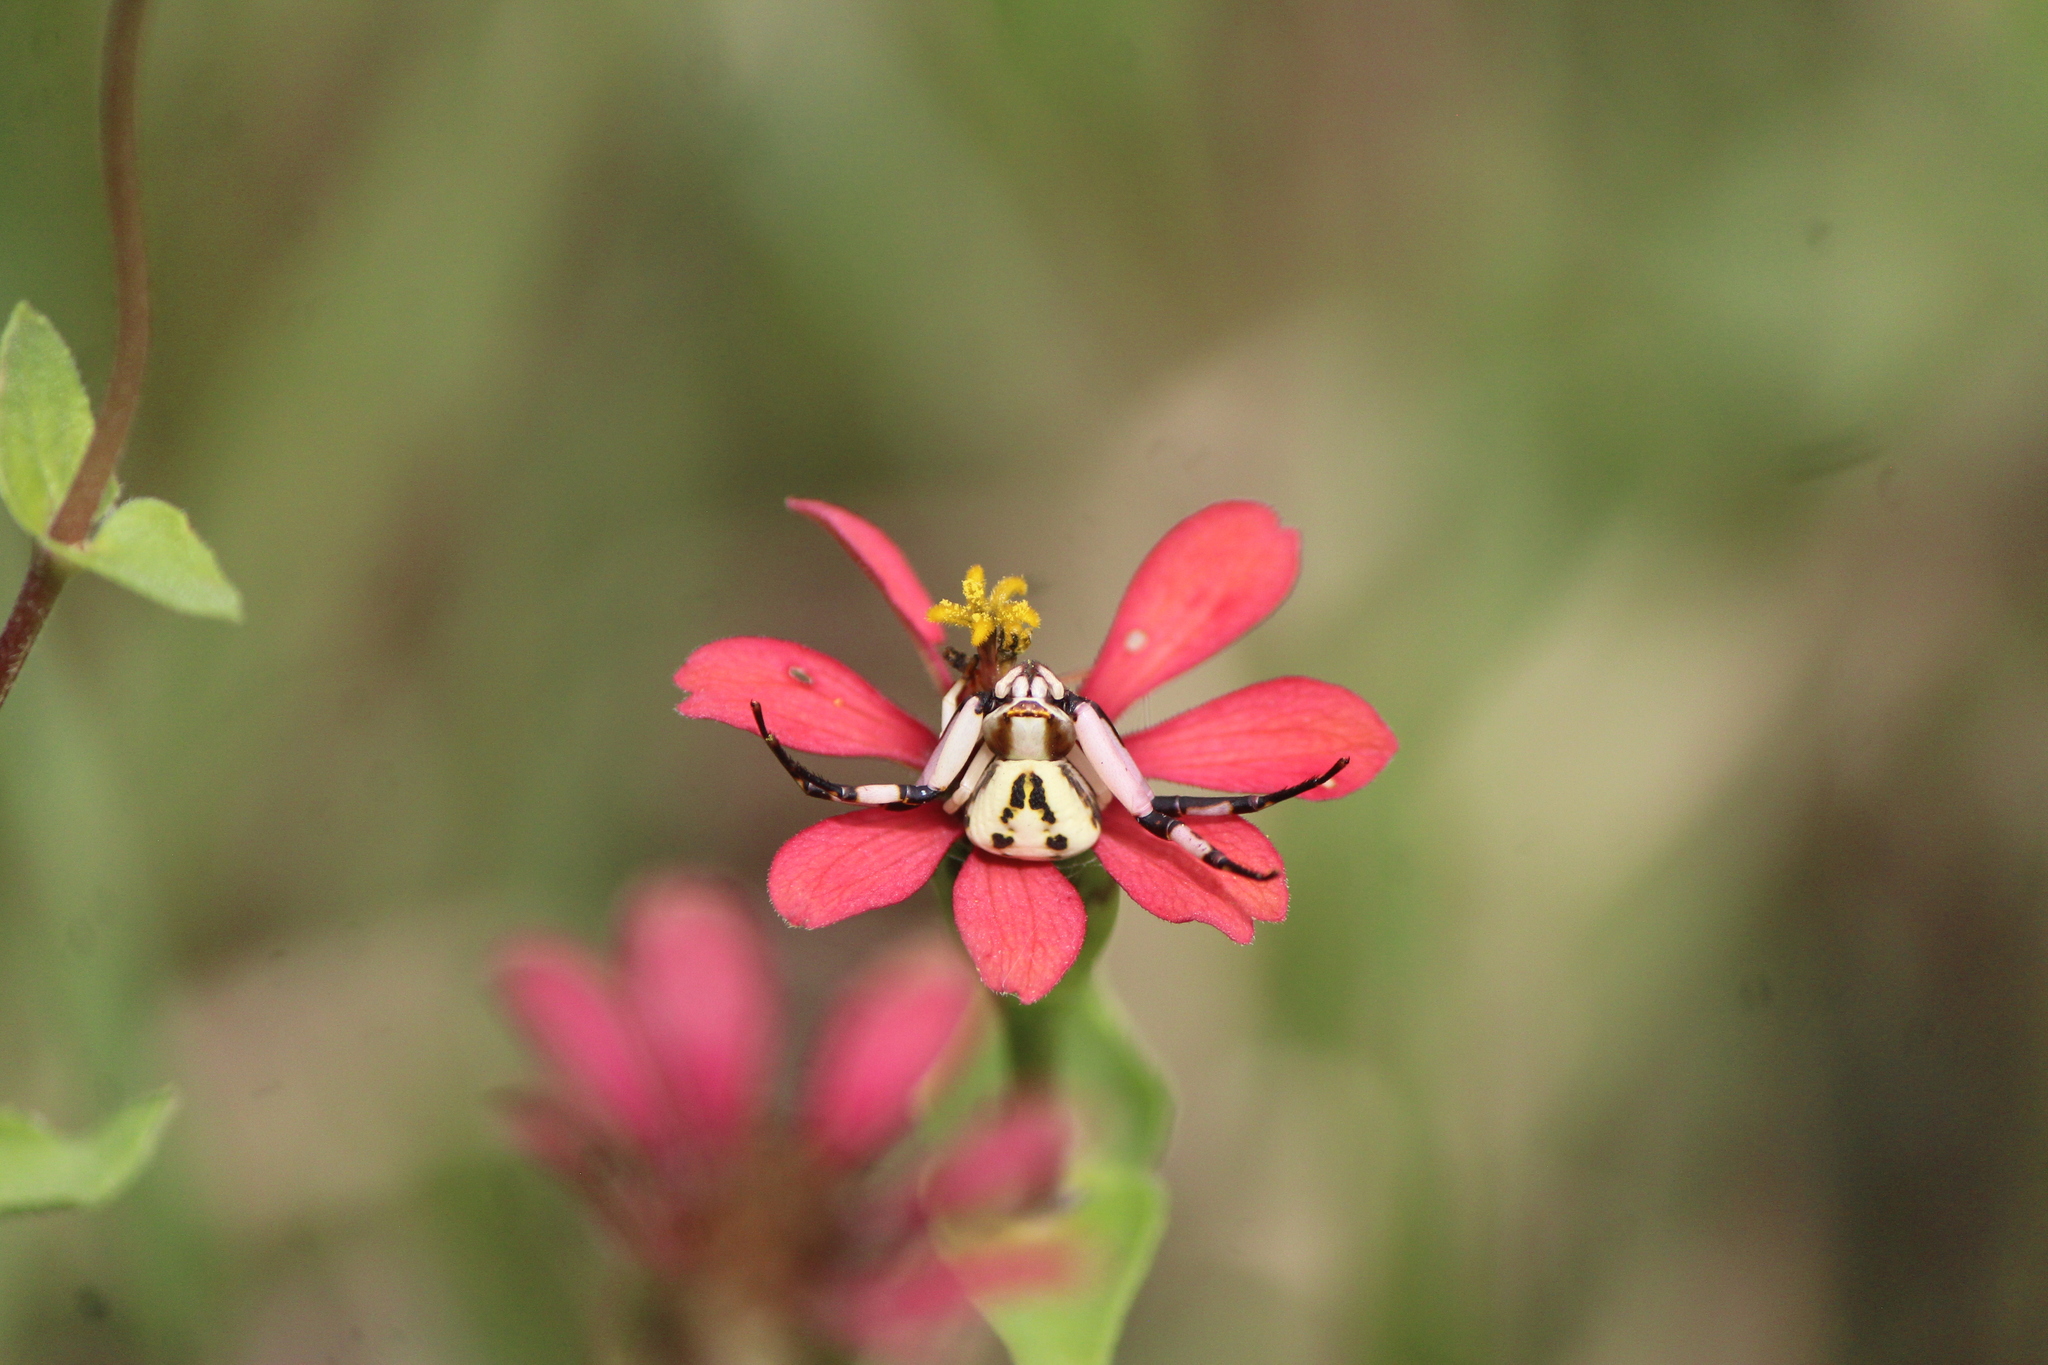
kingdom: Animalia
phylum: Arthropoda
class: Arachnida
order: Araneae
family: Thomisidae
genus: Misumenoides
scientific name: Misumenoides formosipes
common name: White-banded crab spider
